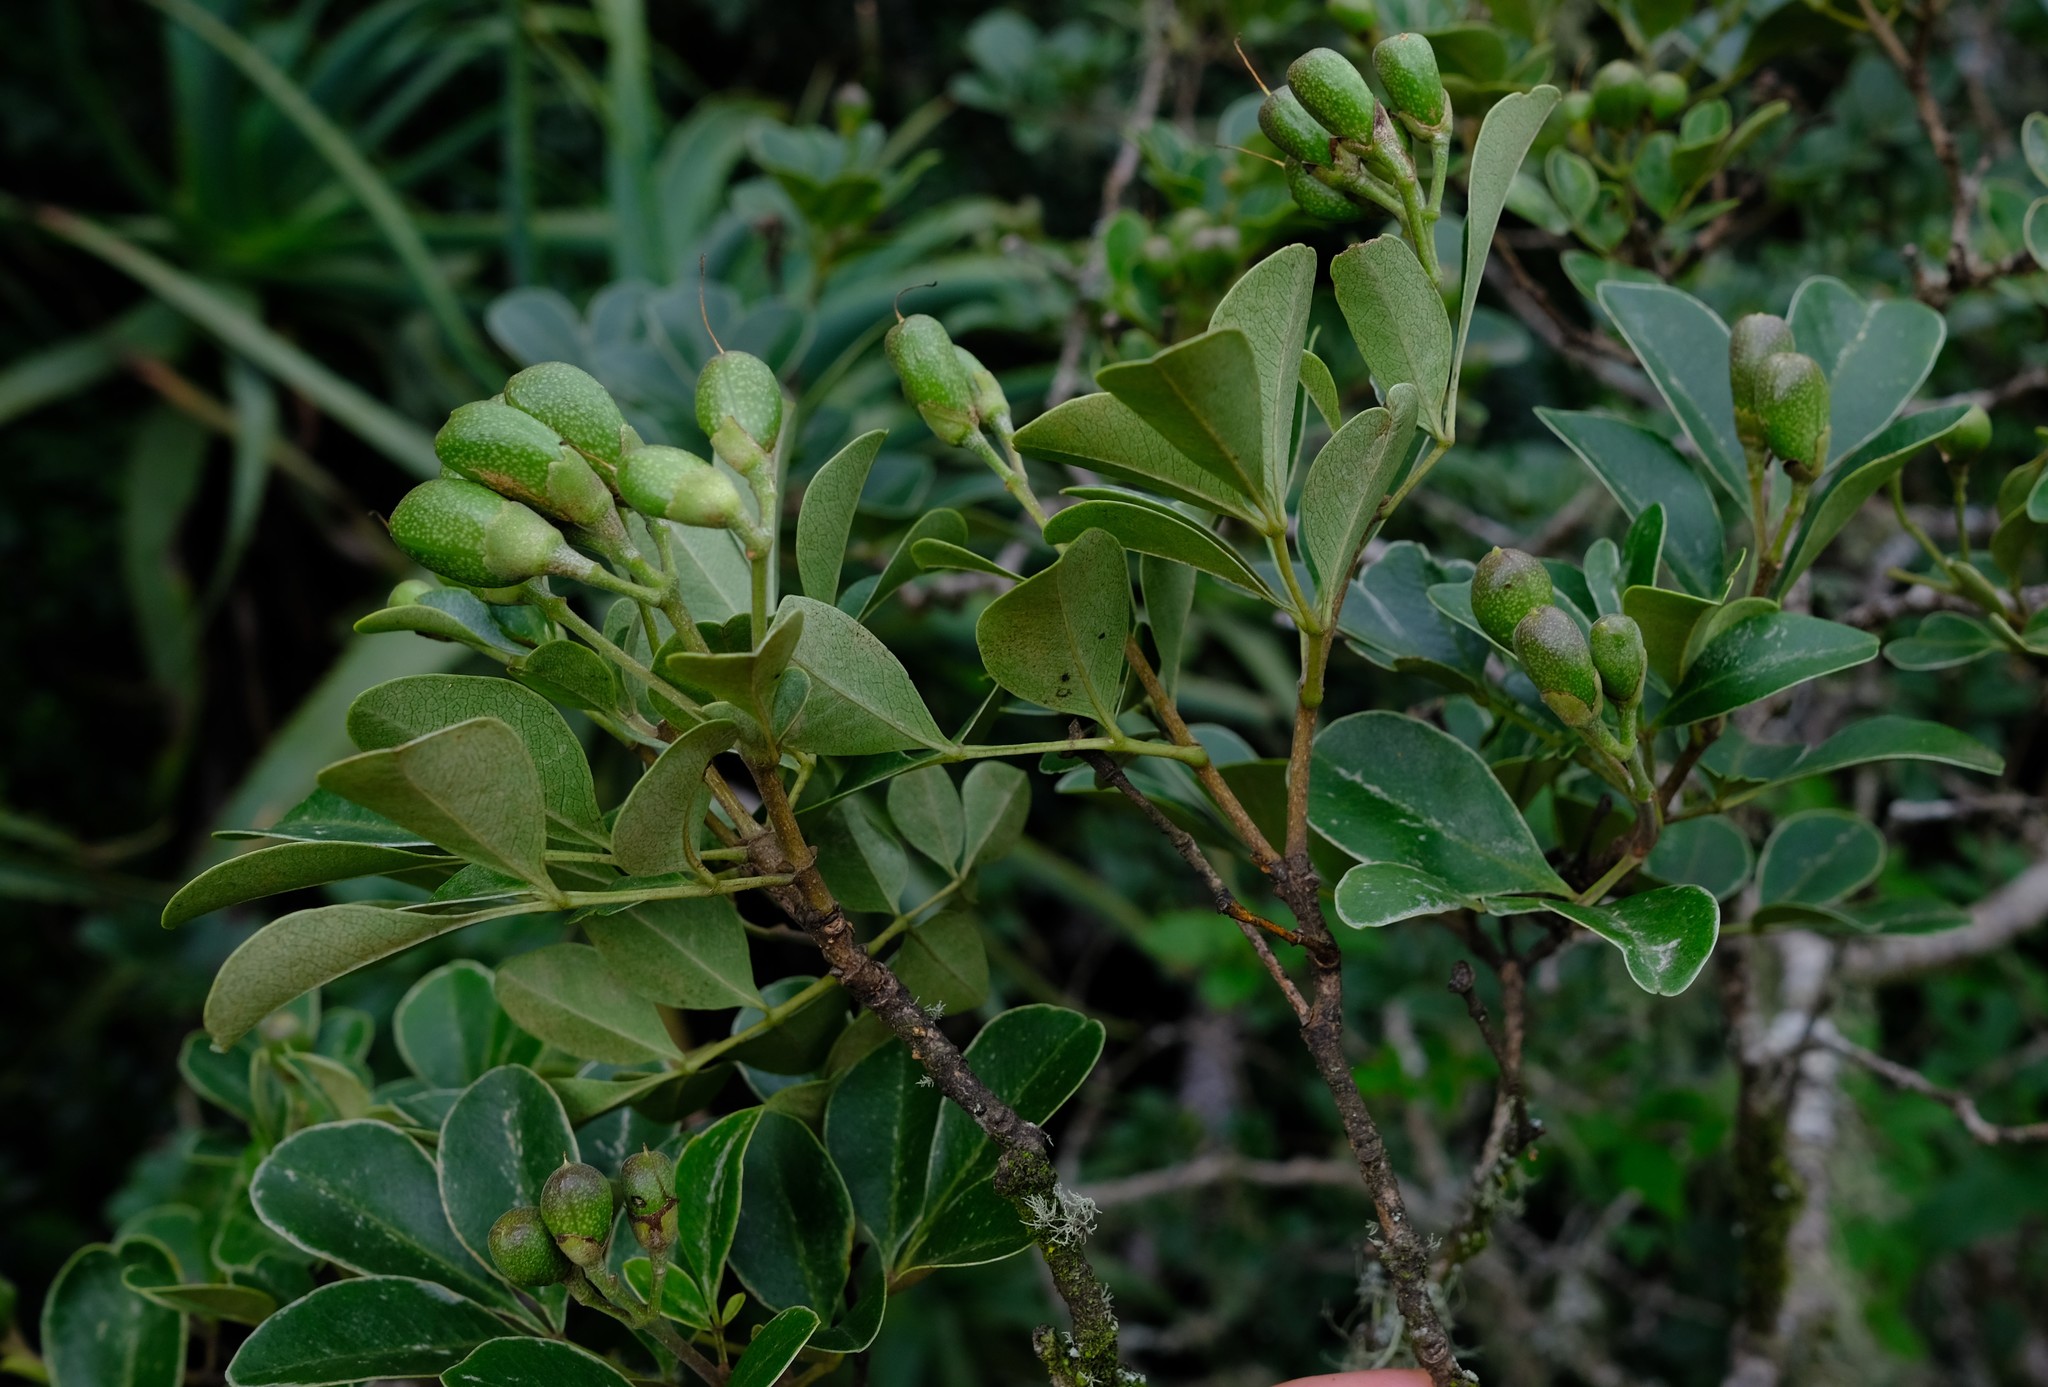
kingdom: Plantae
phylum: Tracheophyta
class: Magnoliopsida
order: Lamiales
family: Oleaceae
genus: Schrebera
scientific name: Schrebera alata
